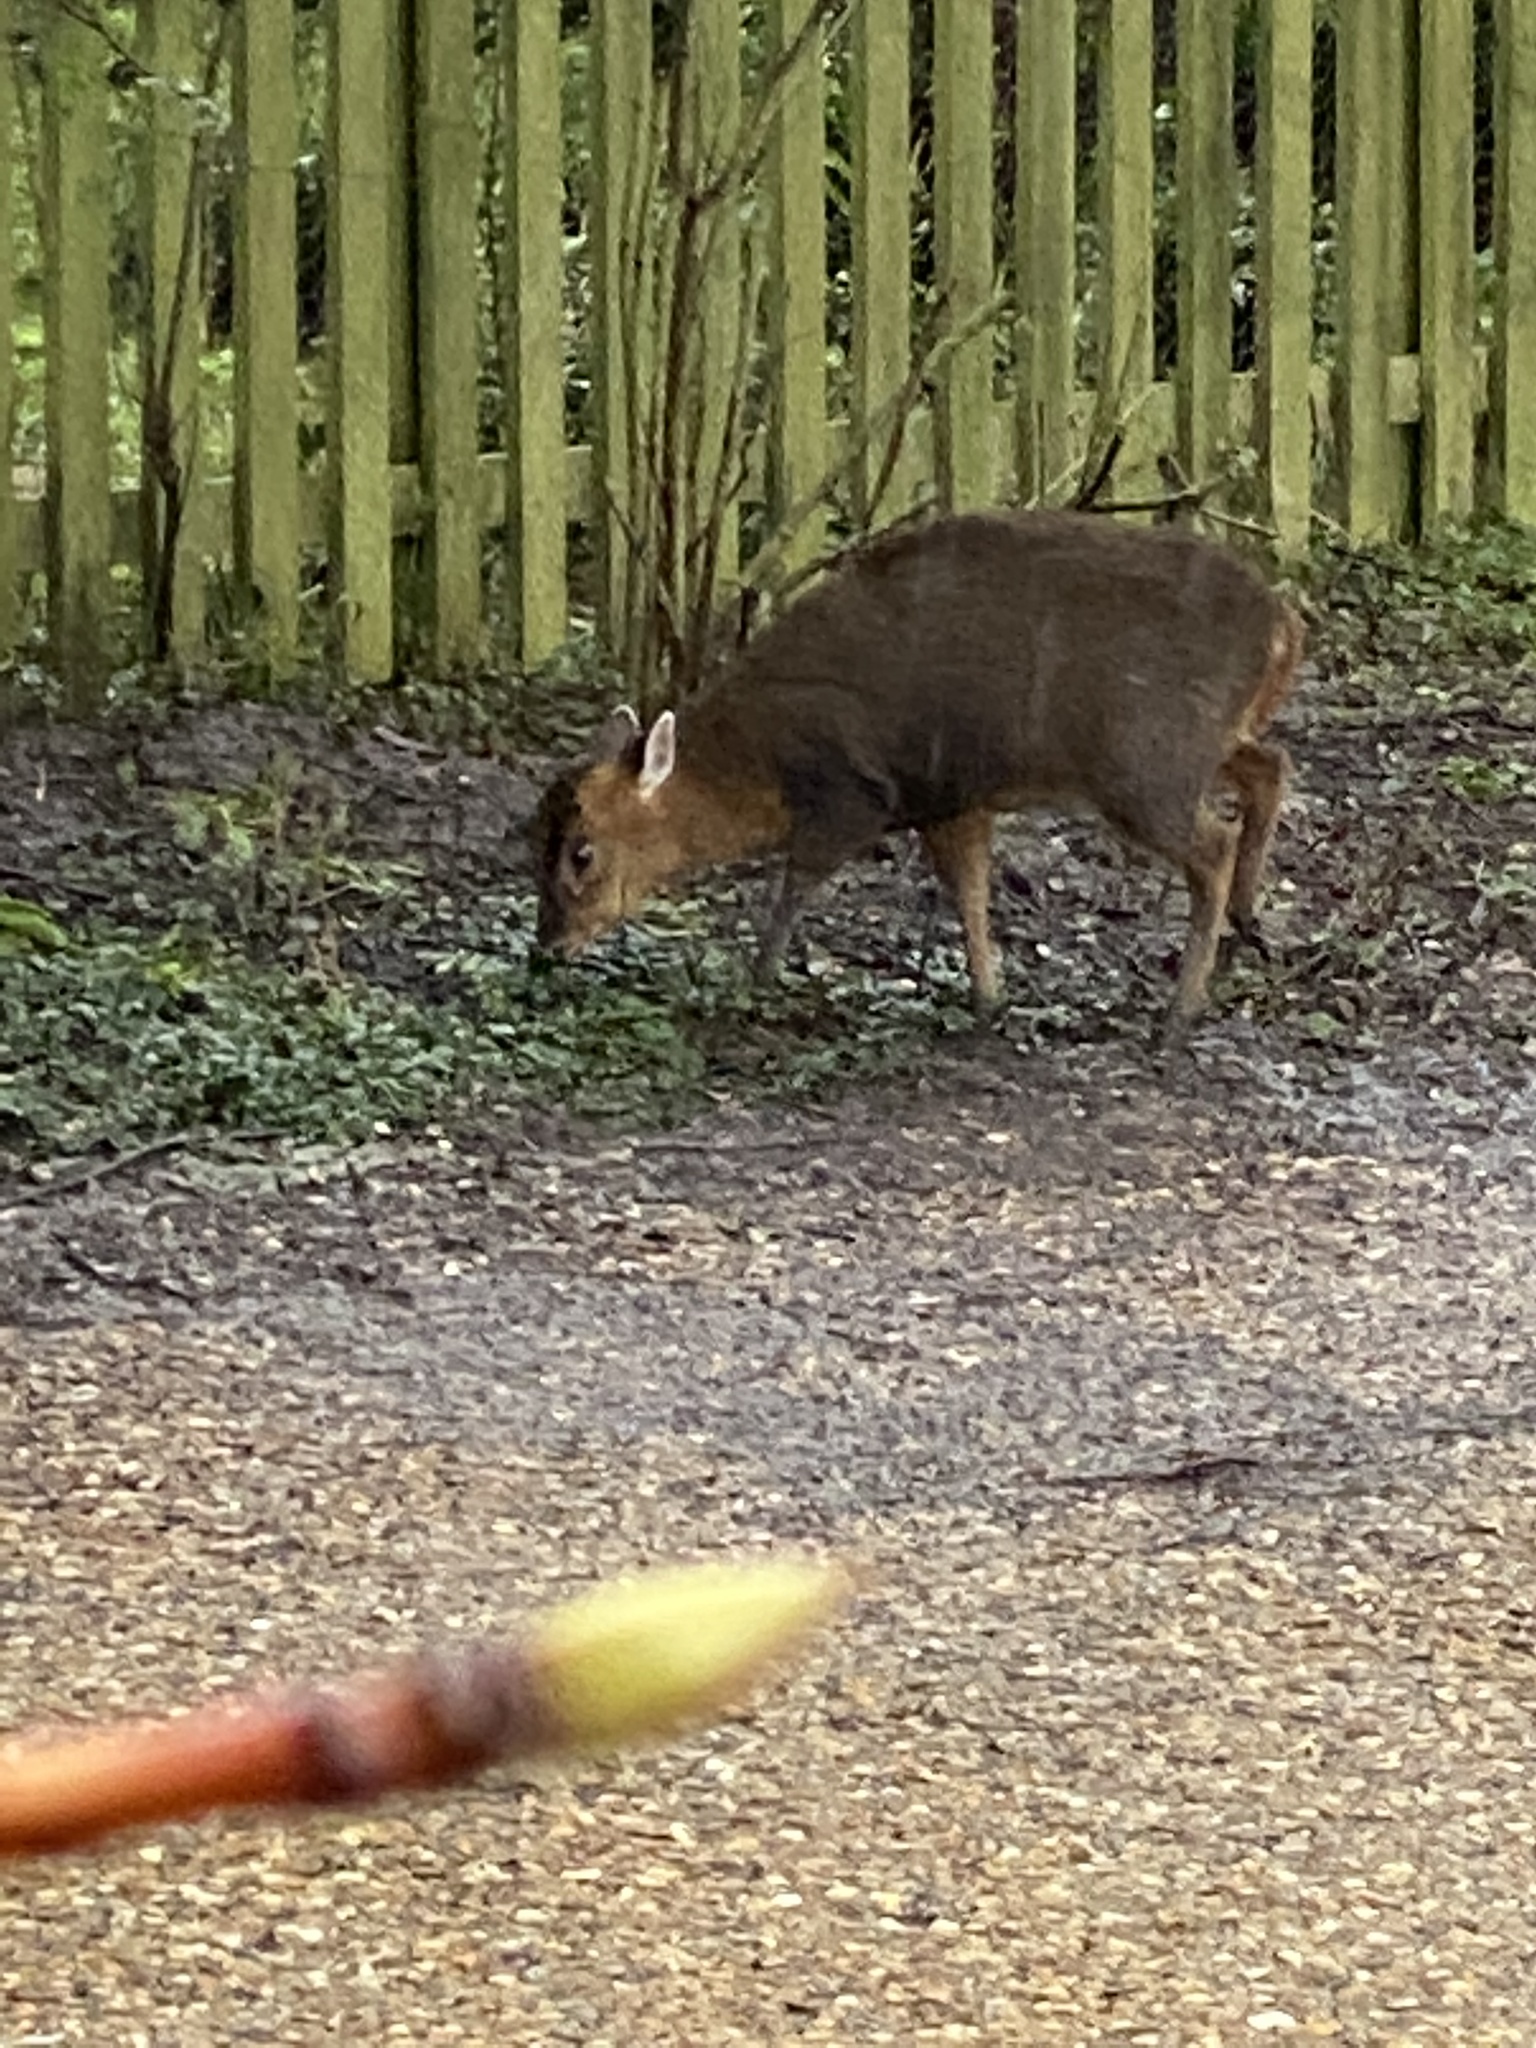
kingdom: Animalia
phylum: Chordata
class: Mammalia
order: Artiodactyla
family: Cervidae
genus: Muntiacus
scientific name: Muntiacus reevesi
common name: Reeves' muntjac
